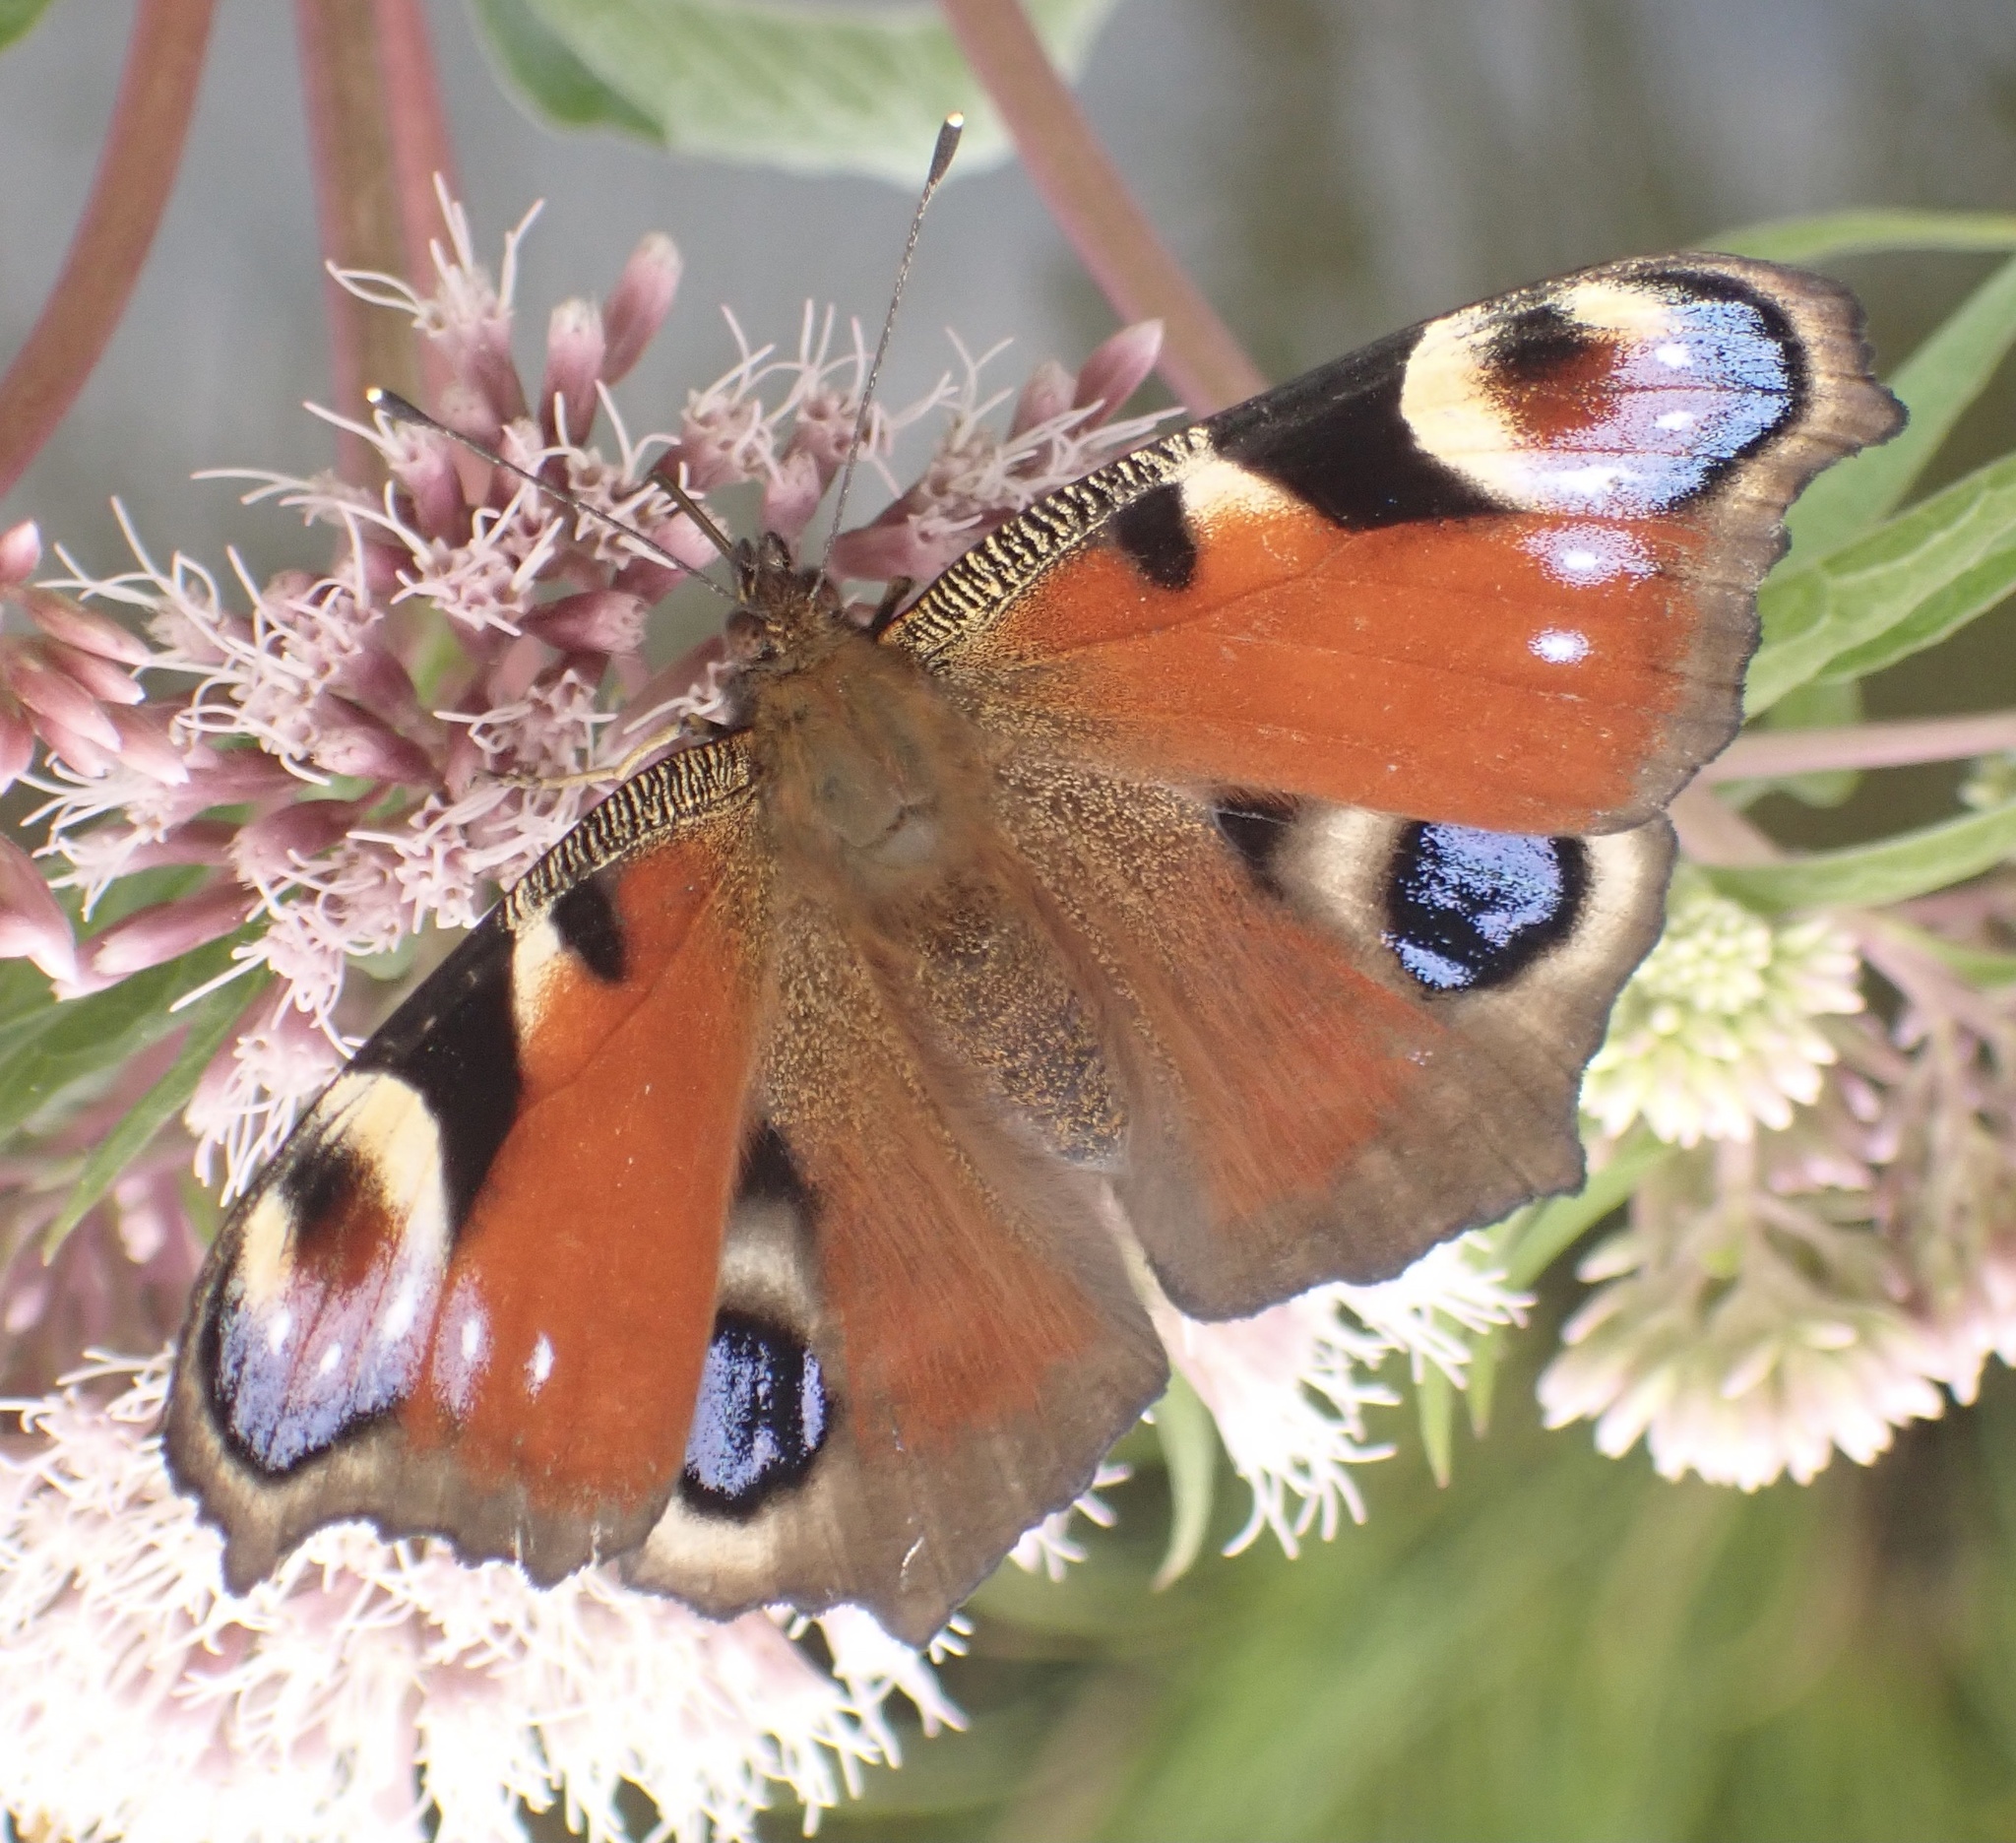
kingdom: Animalia
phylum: Arthropoda
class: Insecta
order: Lepidoptera
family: Nymphalidae
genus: Aglais
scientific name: Aglais io
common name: Peacock
